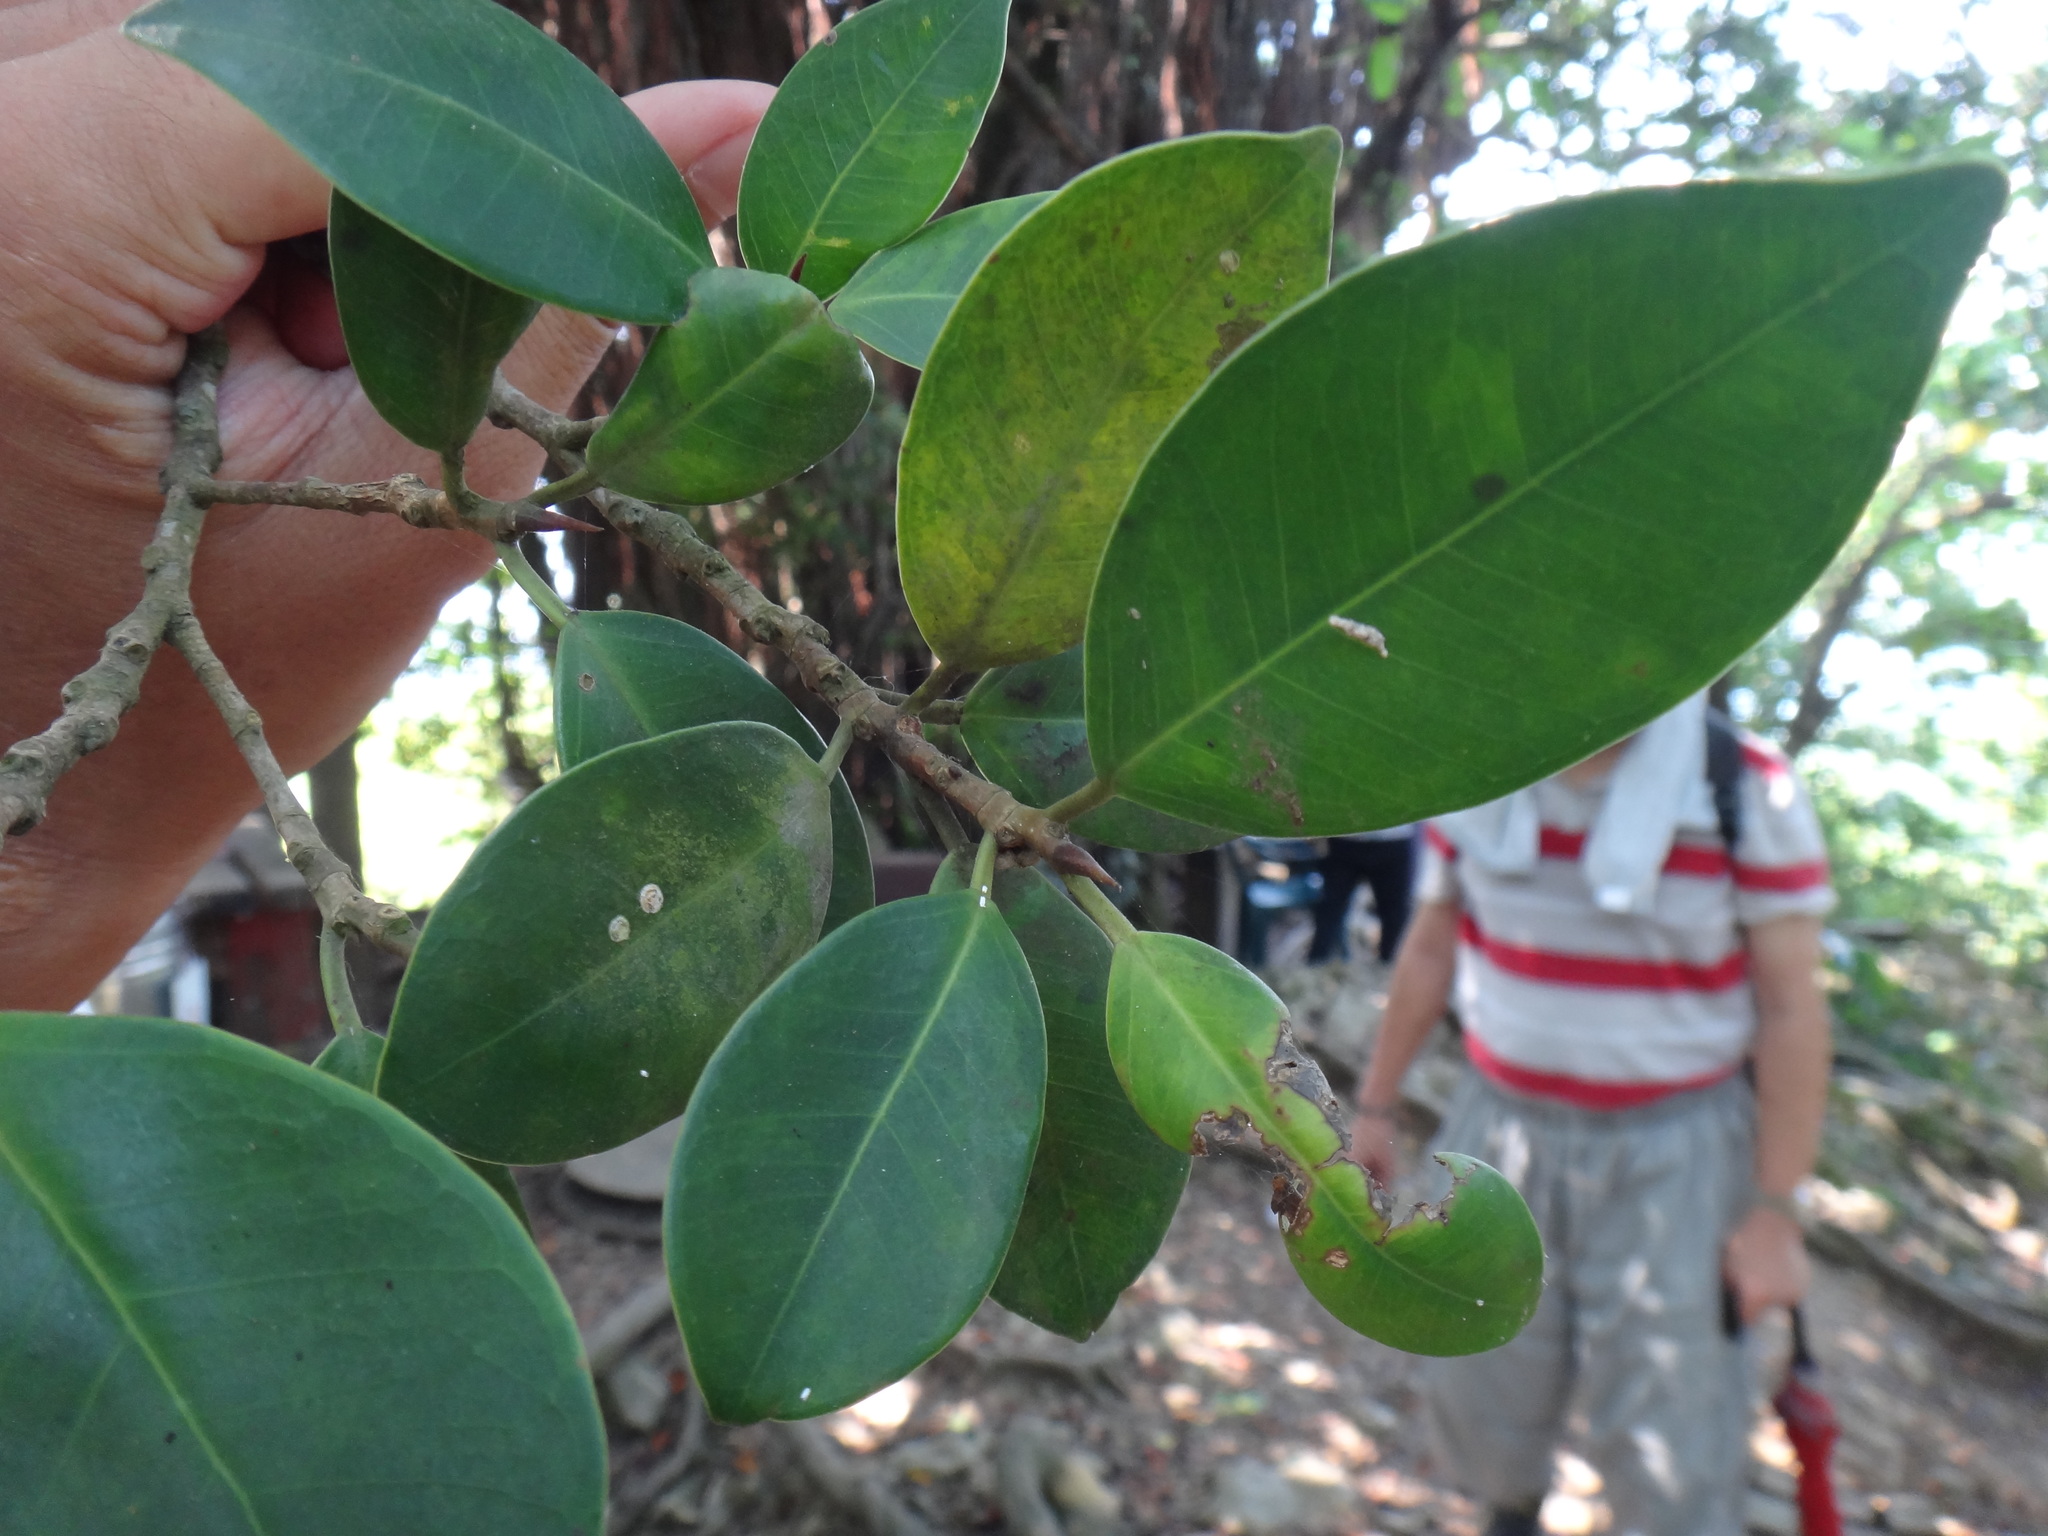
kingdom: Plantae
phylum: Tracheophyta
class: Magnoliopsida
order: Rosales
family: Moraceae
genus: Ficus
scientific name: Ficus microcarpa
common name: Chinese banyan
